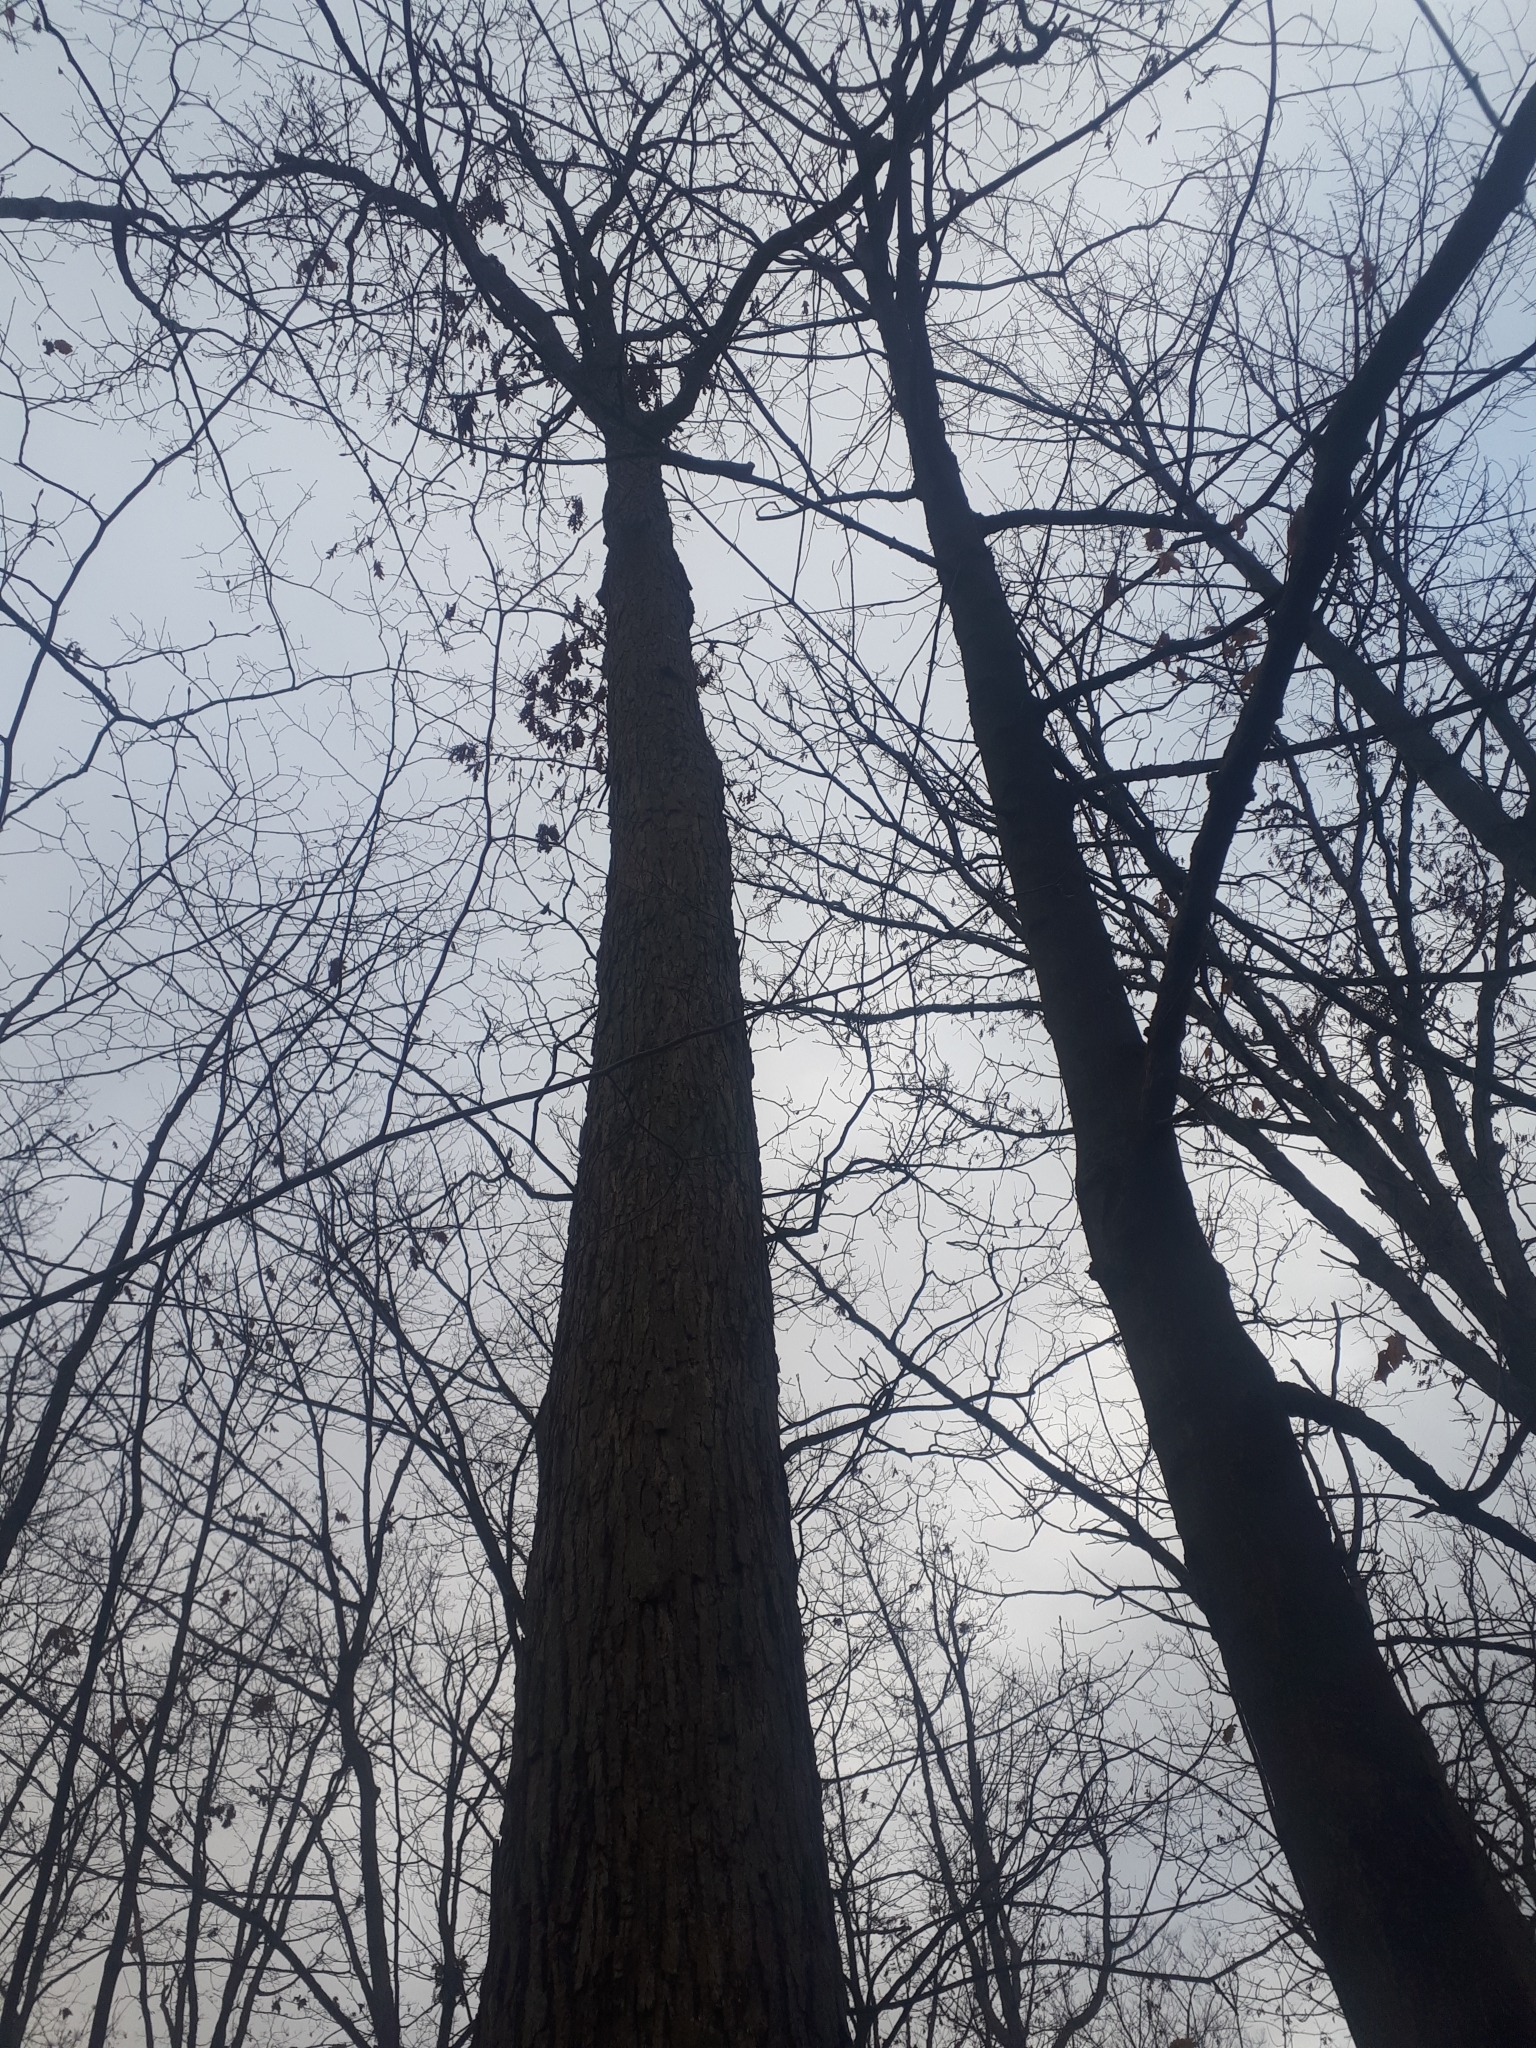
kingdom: Plantae
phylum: Tracheophyta
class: Magnoliopsida
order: Fagales
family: Fagaceae
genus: Quercus
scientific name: Quercus alba
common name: White oak
